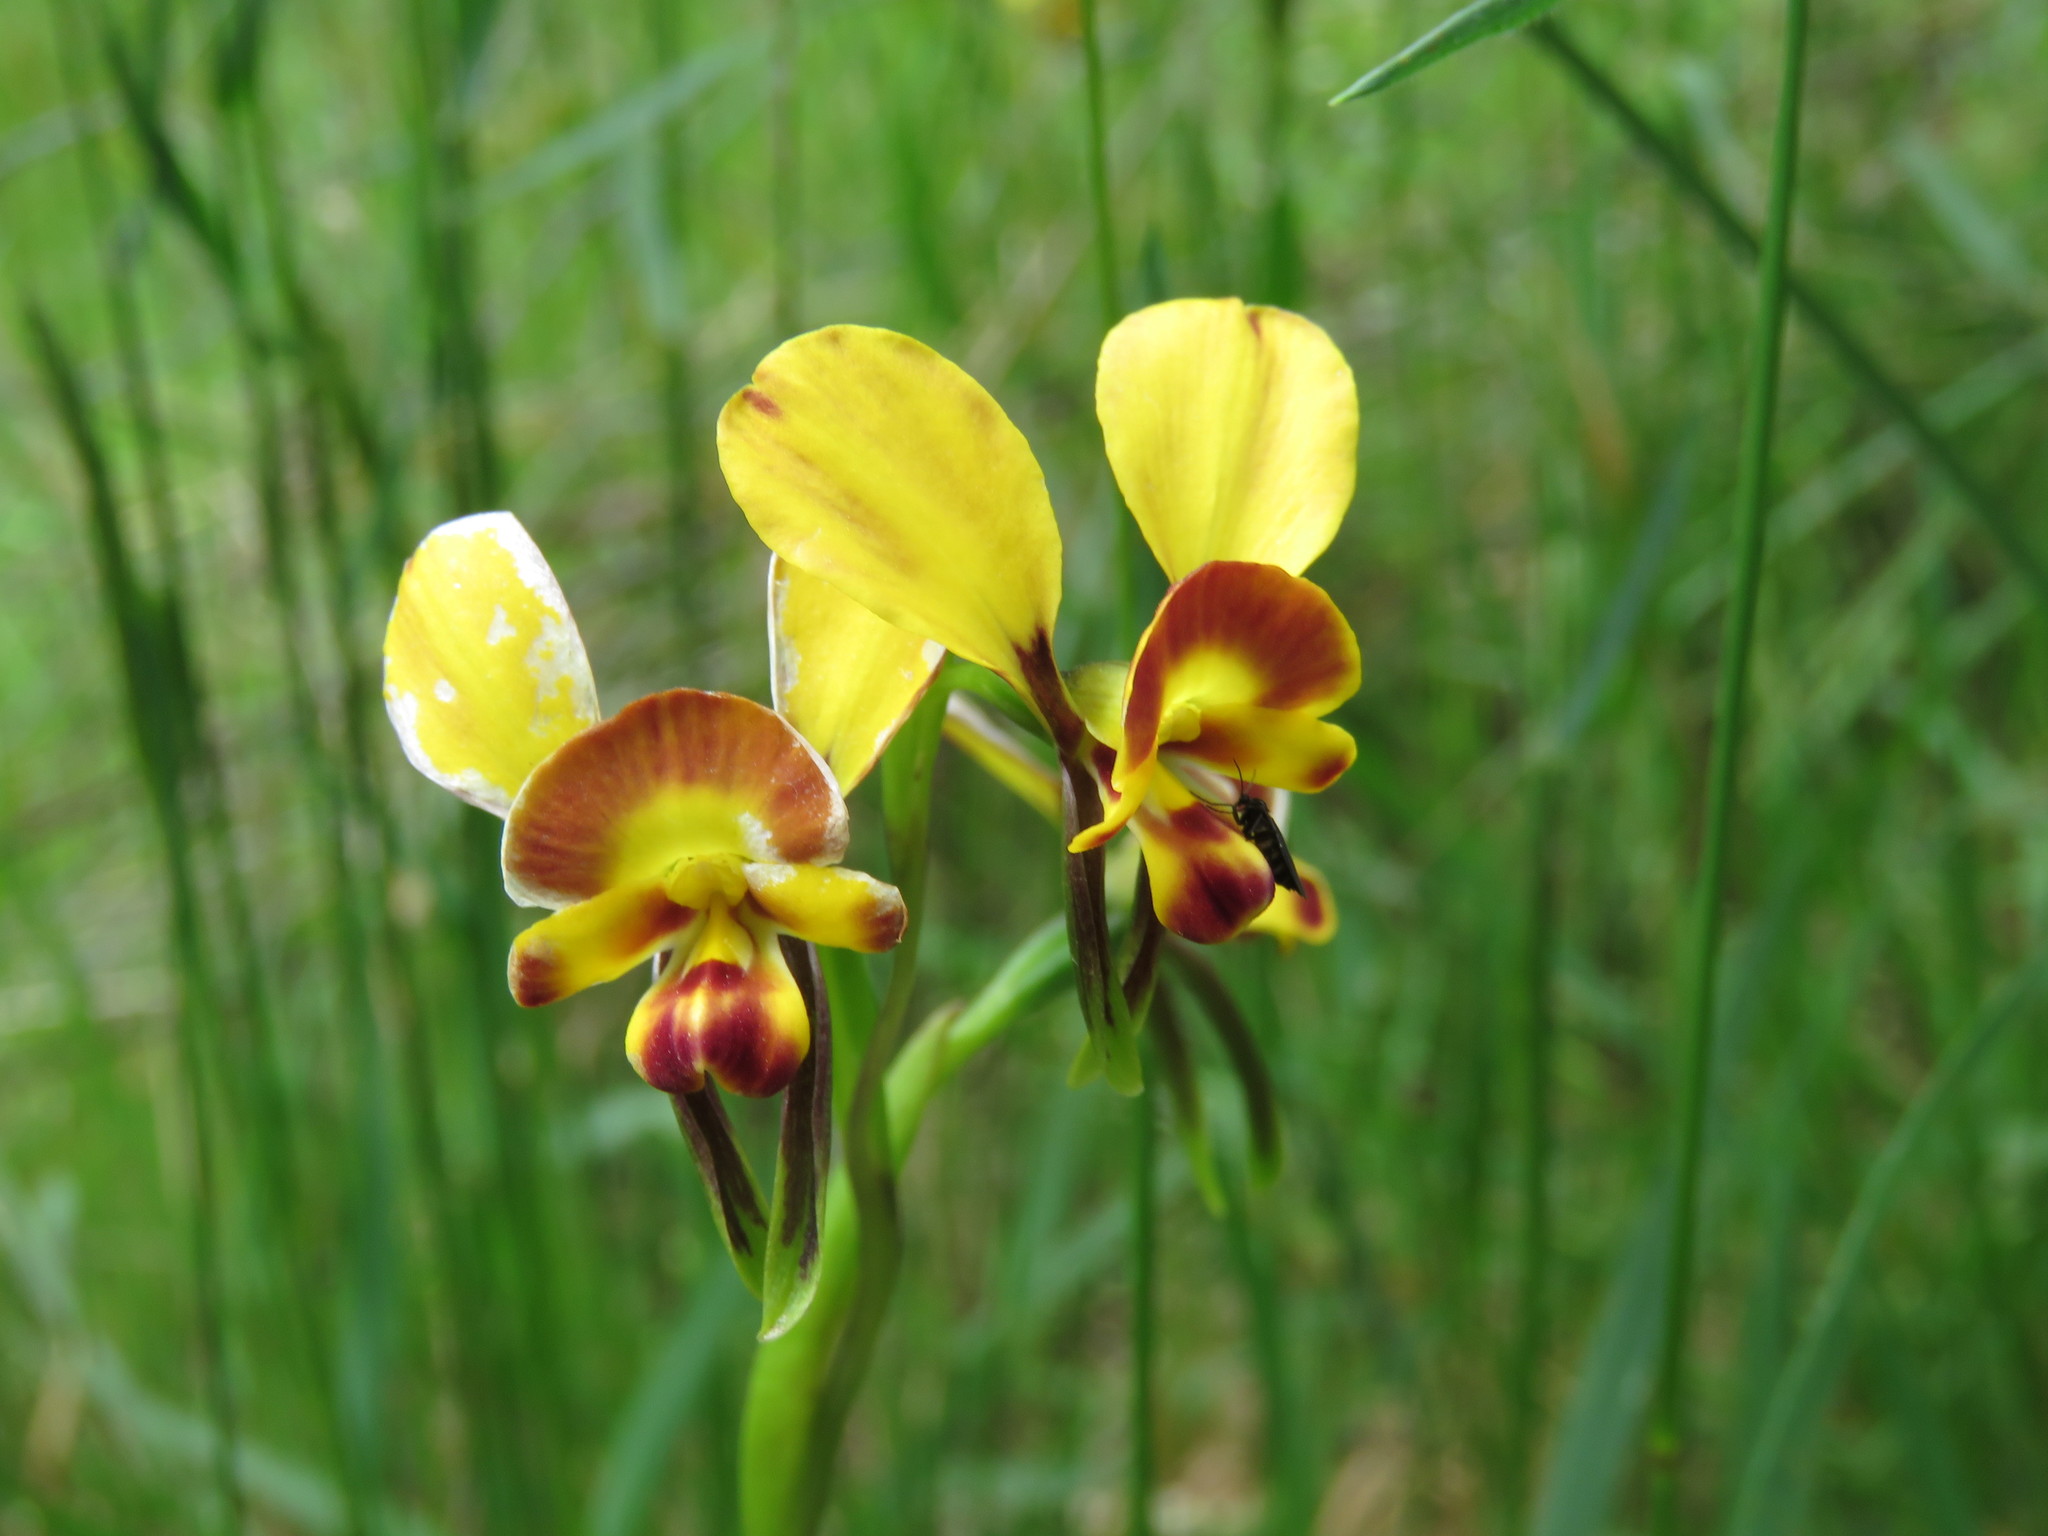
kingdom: Plantae
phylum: Tracheophyta
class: Liliopsida
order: Asparagales
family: Orchidaceae
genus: Diuris
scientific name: Diuris orientis
